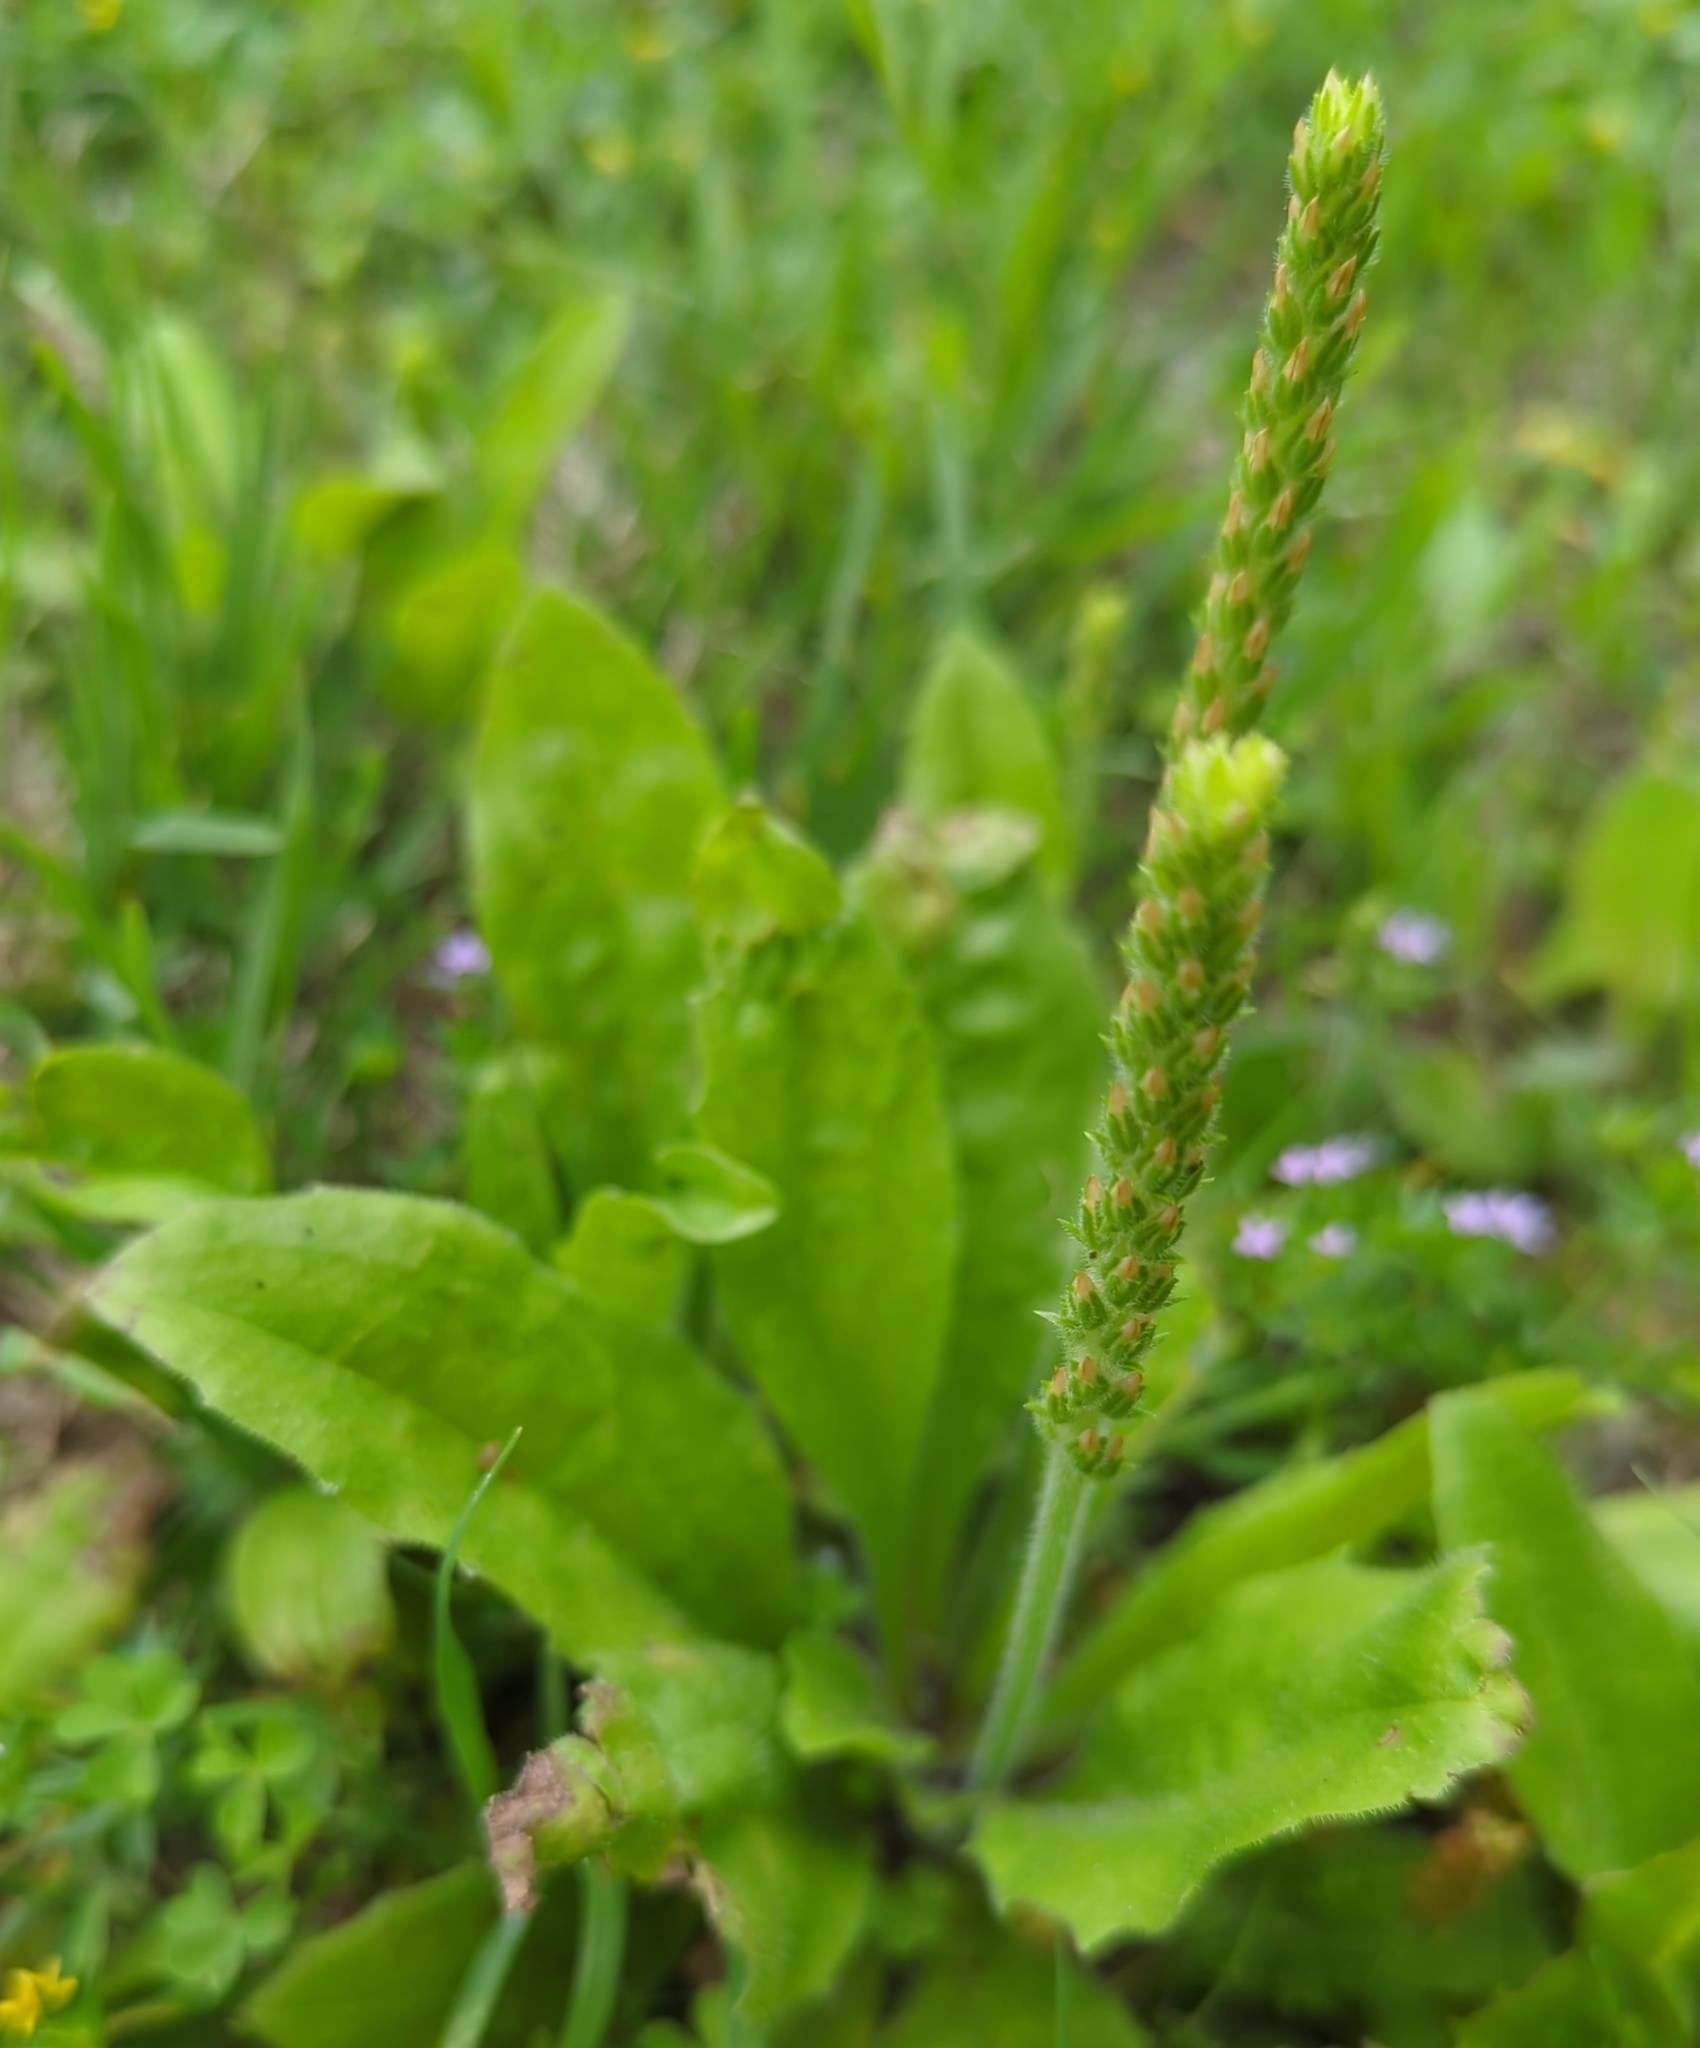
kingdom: Plantae
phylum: Tracheophyta
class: Magnoliopsida
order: Lamiales
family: Plantaginaceae
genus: Plantago
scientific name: Plantago rhodosperma
